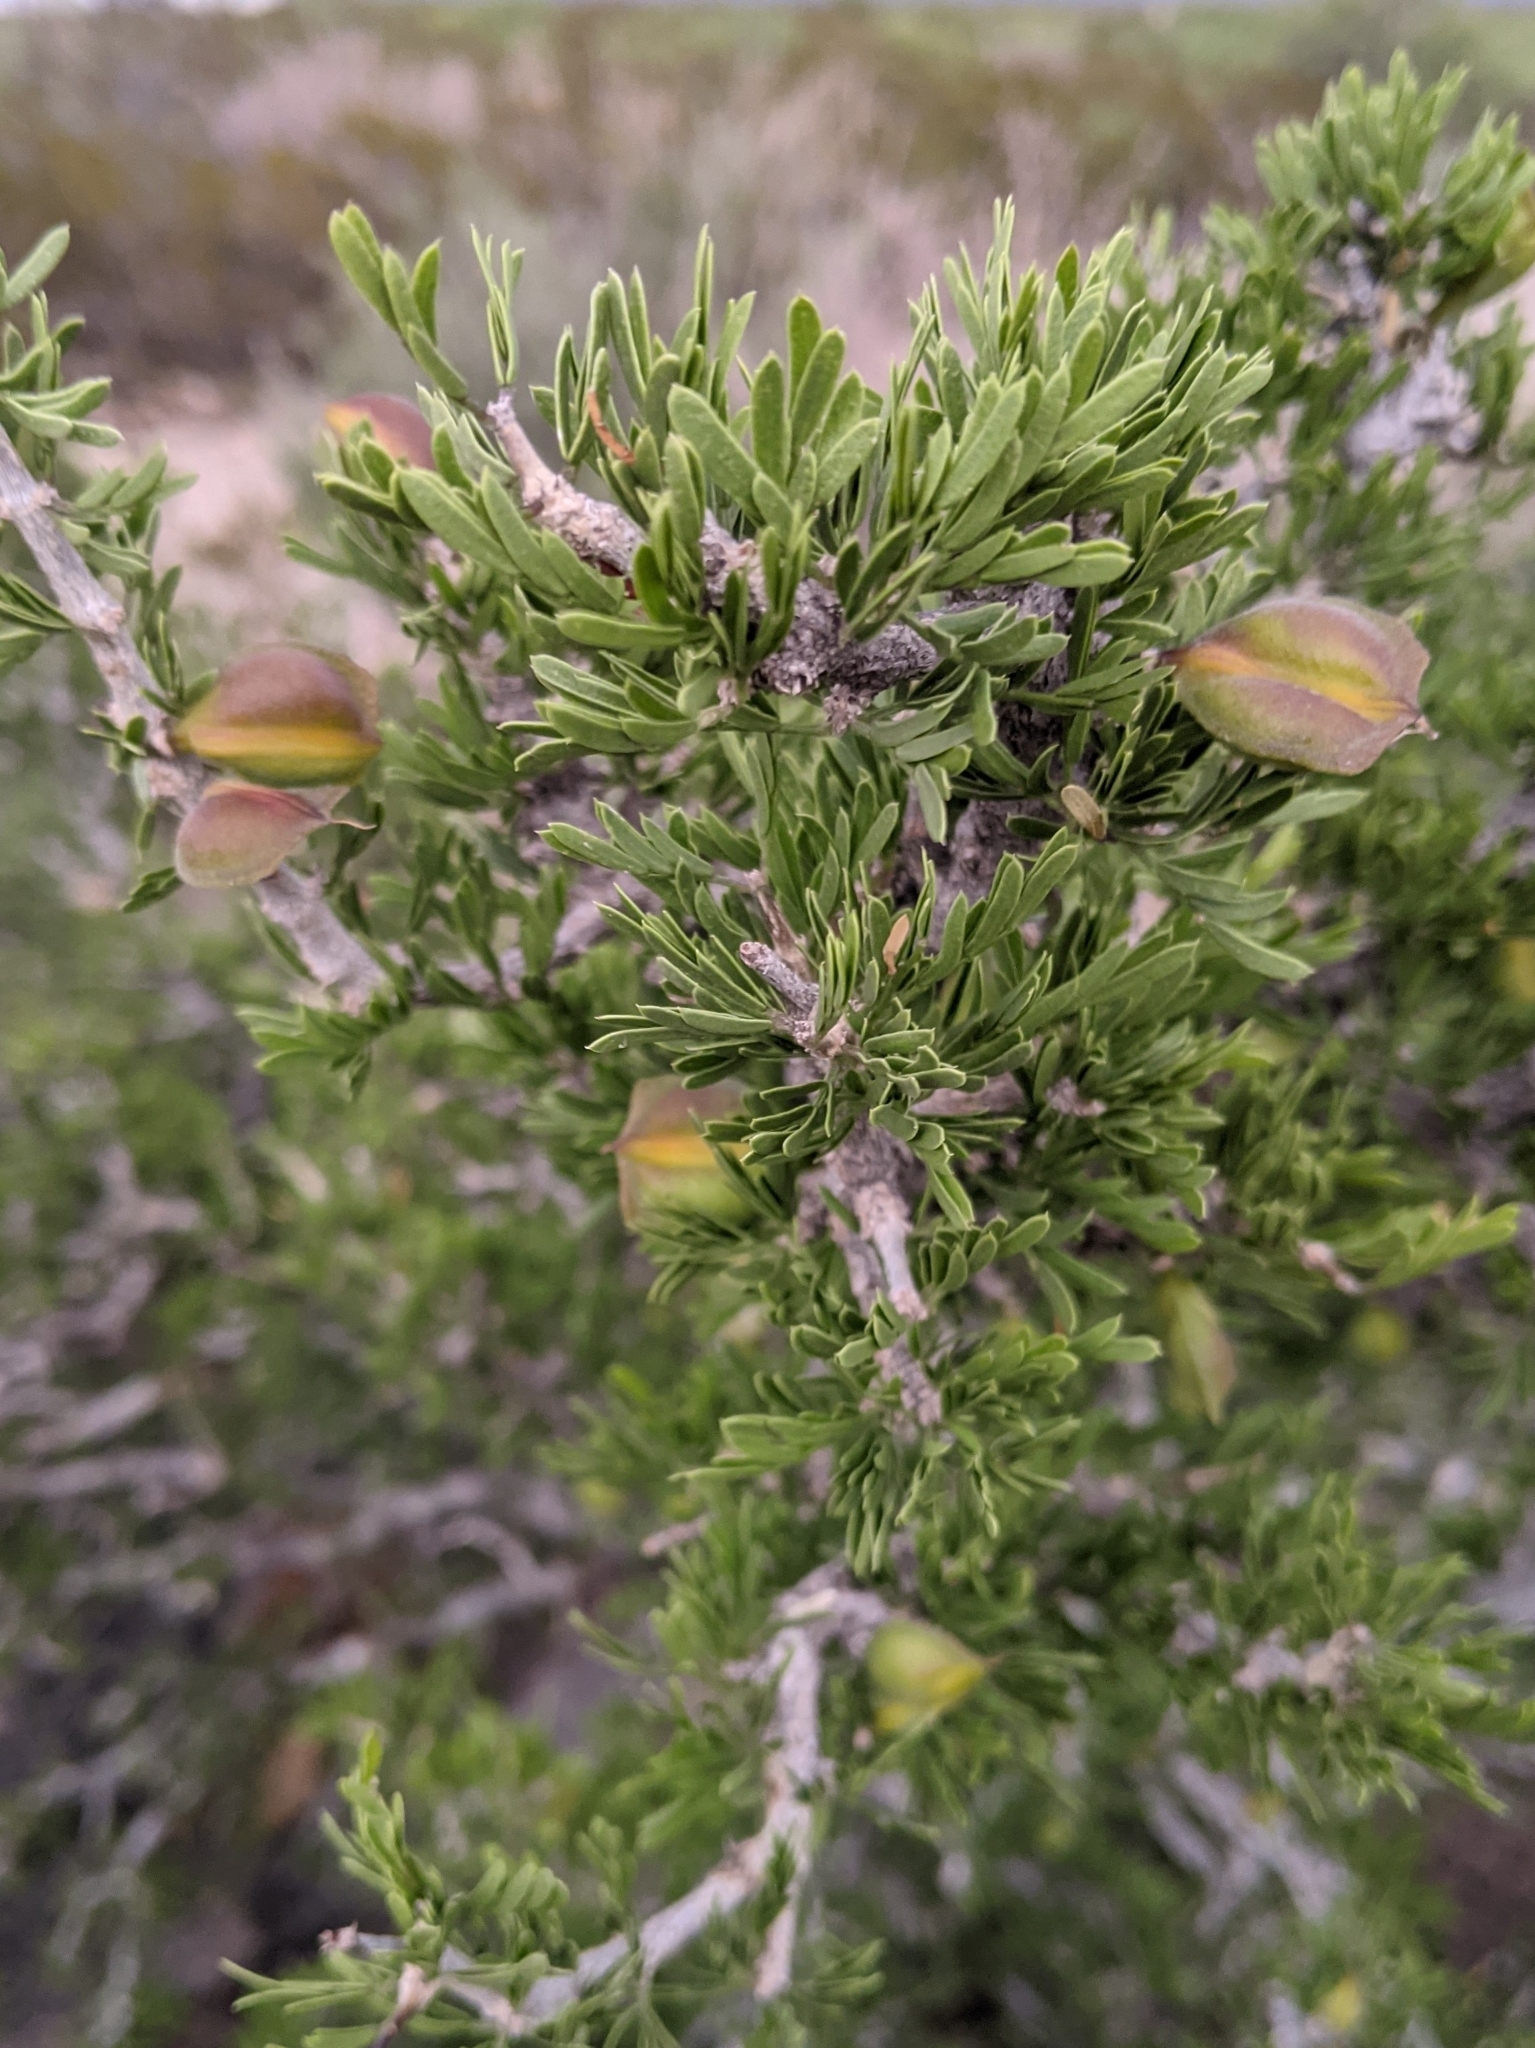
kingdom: Plantae
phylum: Tracheophyta
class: Magnoliopsida
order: Zygophyllales
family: Zygophyllaceae
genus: Porlieria
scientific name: Porlieria angustifolia
